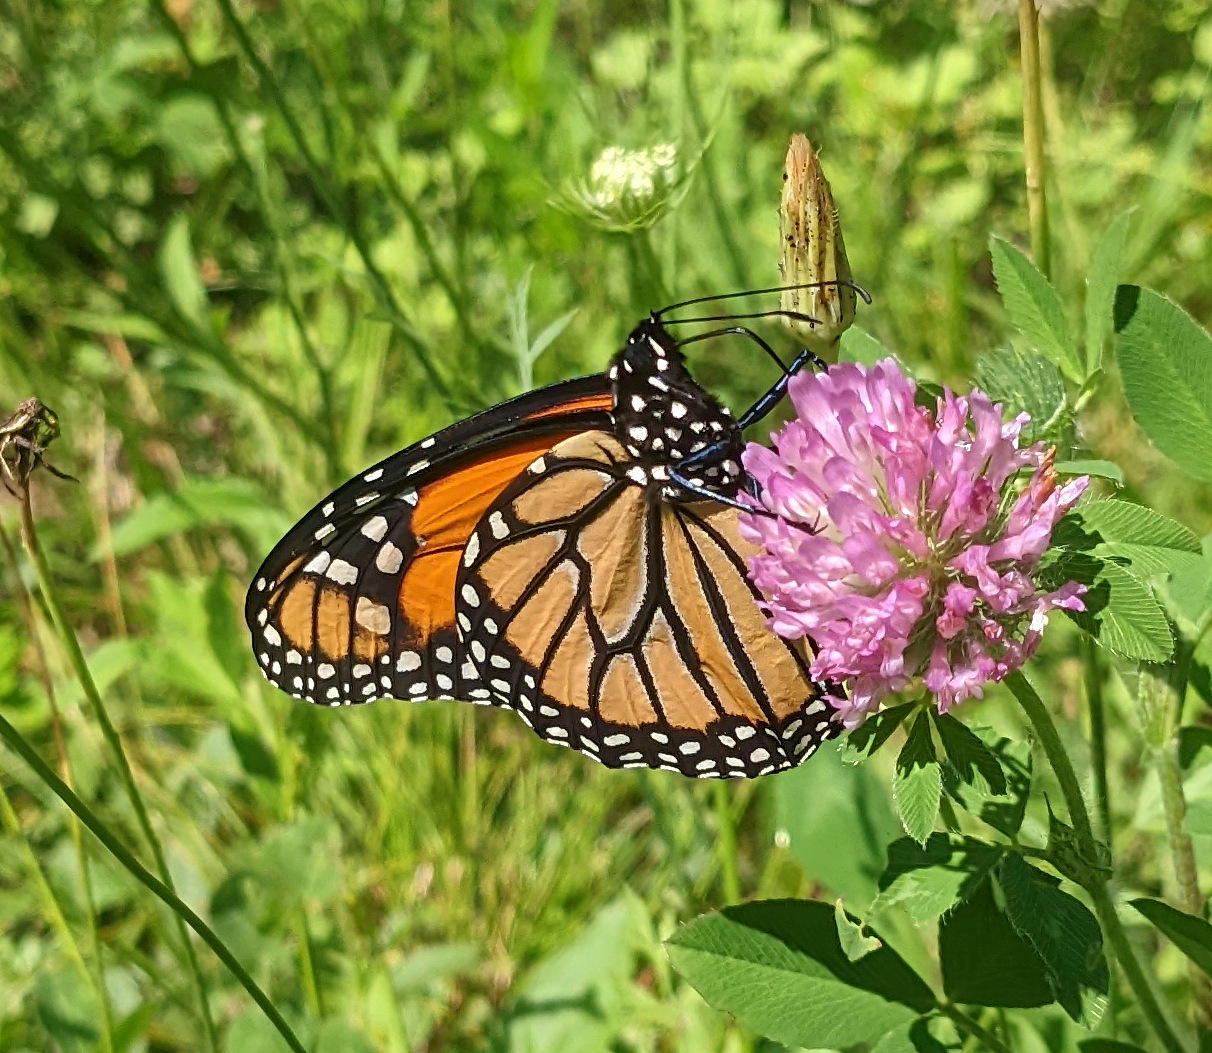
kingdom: Animalia
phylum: Arthropoda
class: Insecta
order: Lepidoptera
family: Nymphalidae
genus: Danaus
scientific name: Danaus plexippus
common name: Monarch
